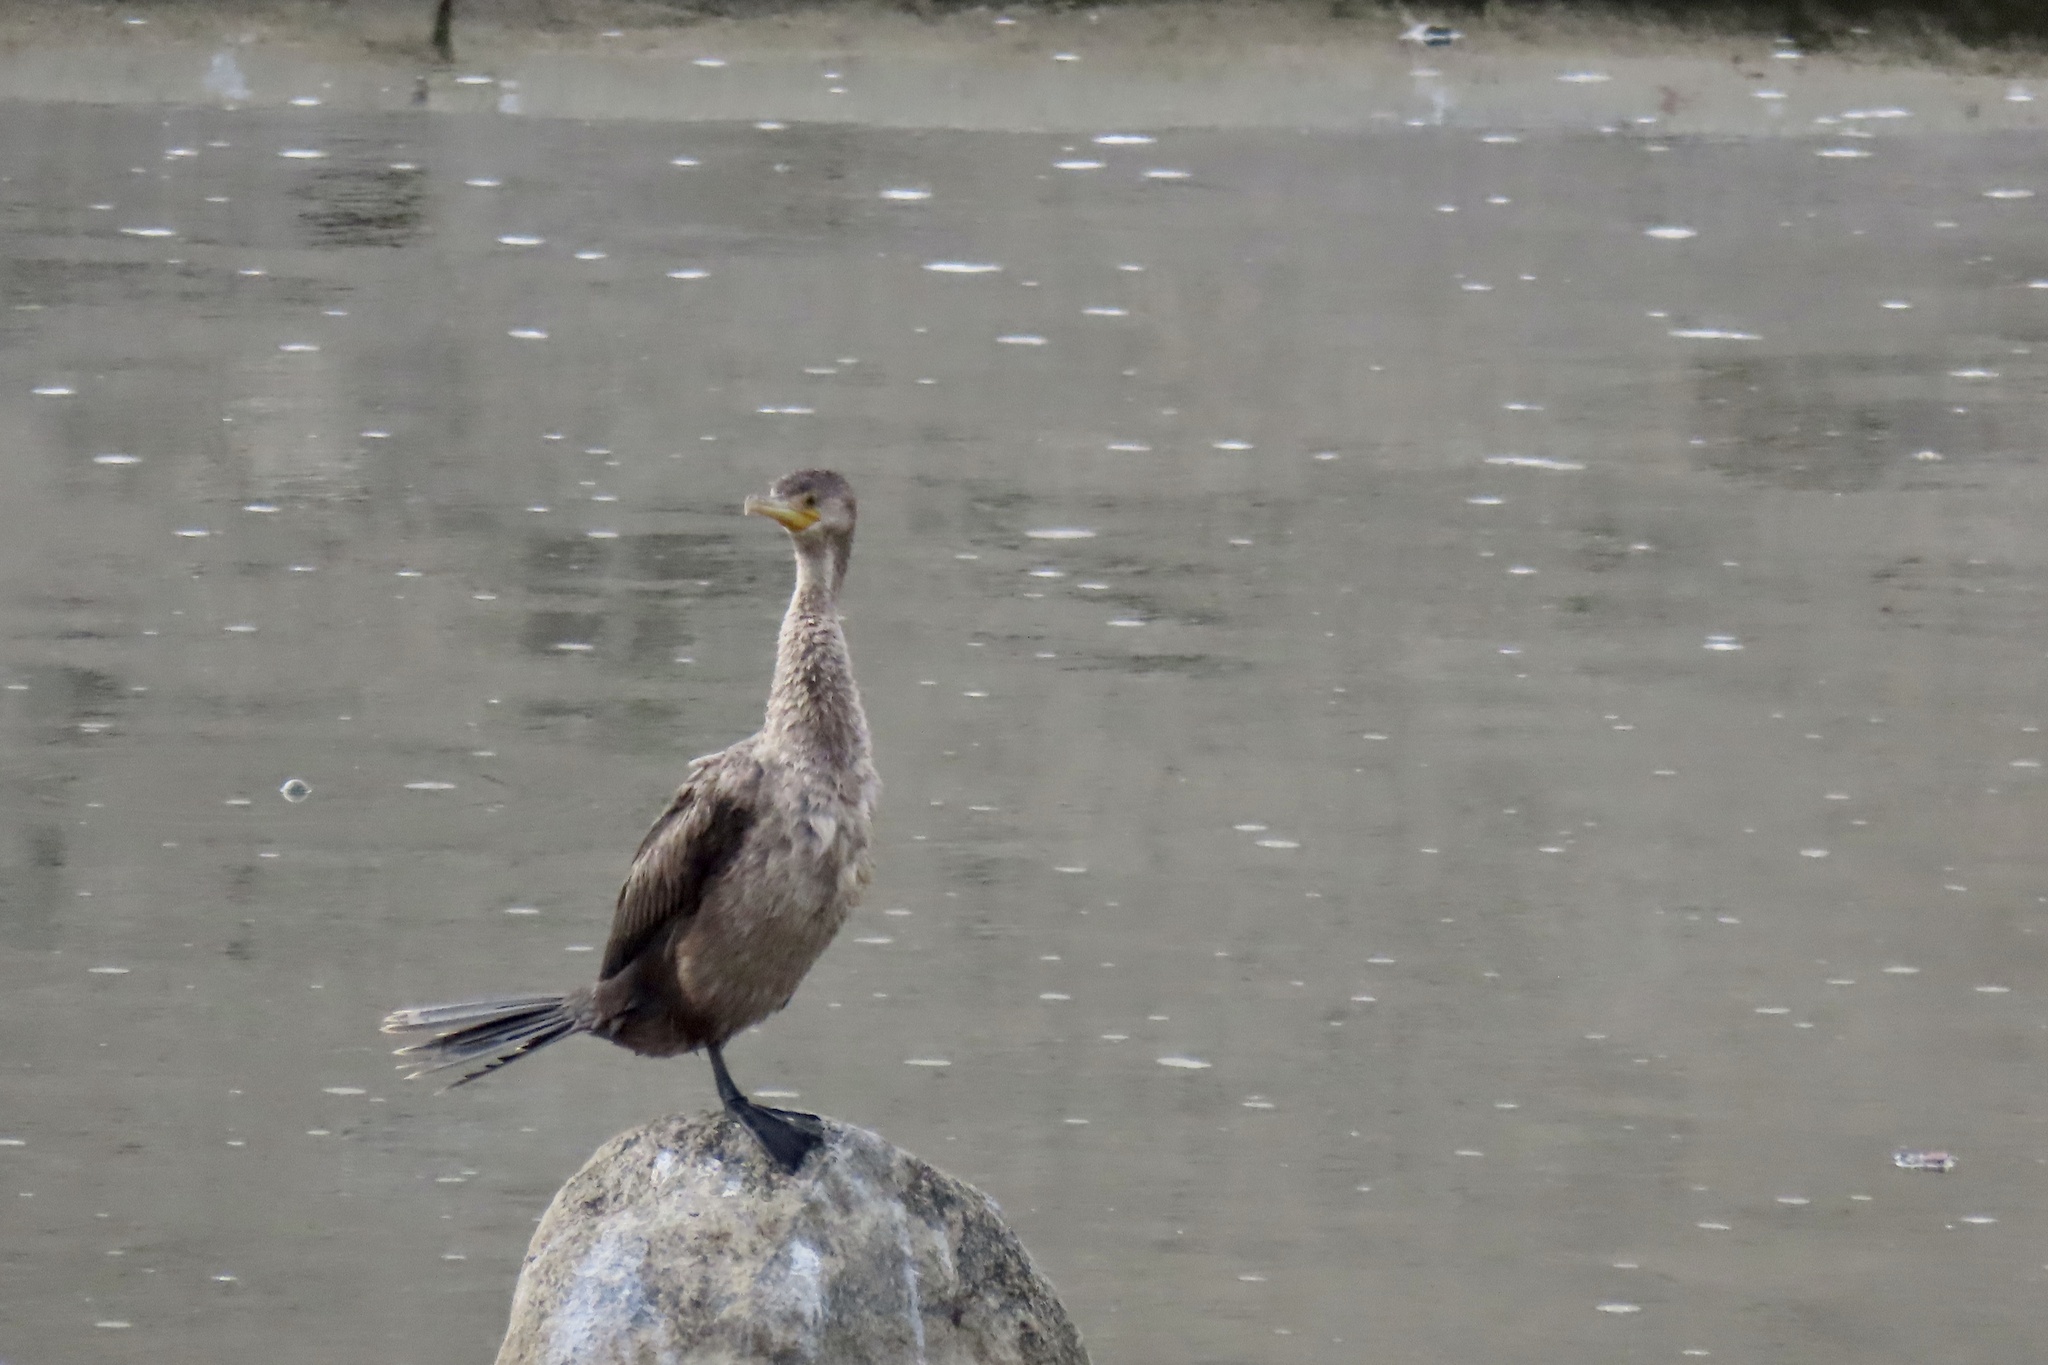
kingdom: Animalia
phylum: Chordata
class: Aves
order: Suliformes
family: Phalacrocoracidae
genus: Phalacrocorax
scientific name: Phalacrocorax auritus
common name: Double-crested cormorant
